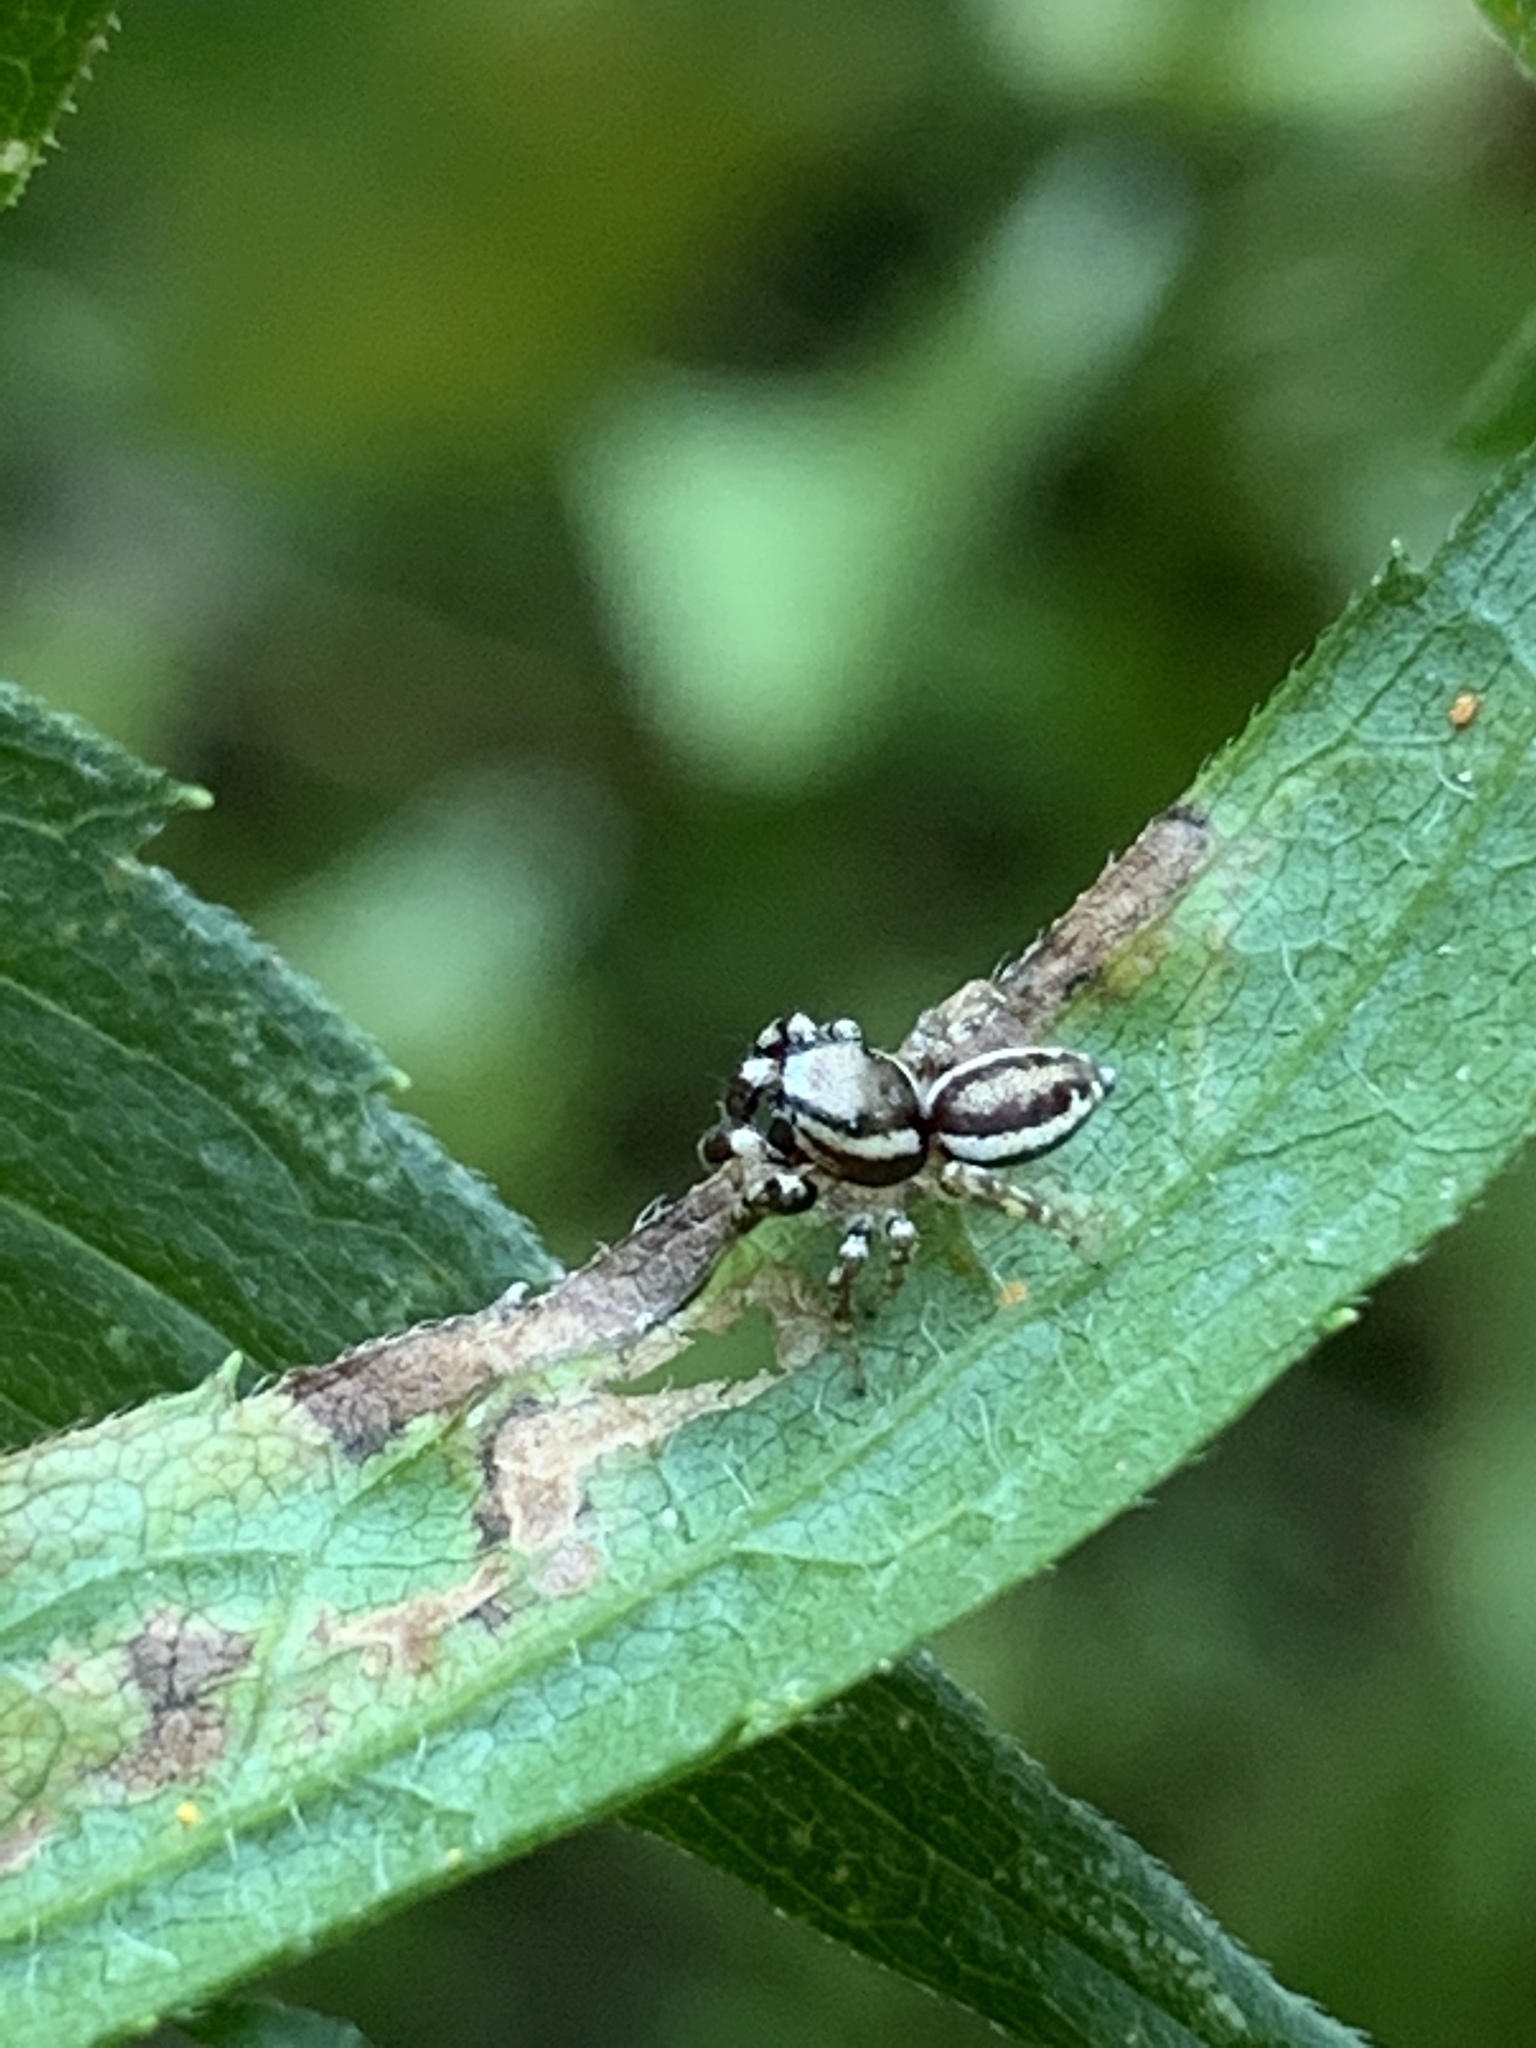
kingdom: Animalia
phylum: Arthropoda
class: Arachnida
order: Araneae
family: Salticidae
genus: Pelegrina
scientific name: Pelegrina proterva
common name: Common white-cheeked jumping spider
